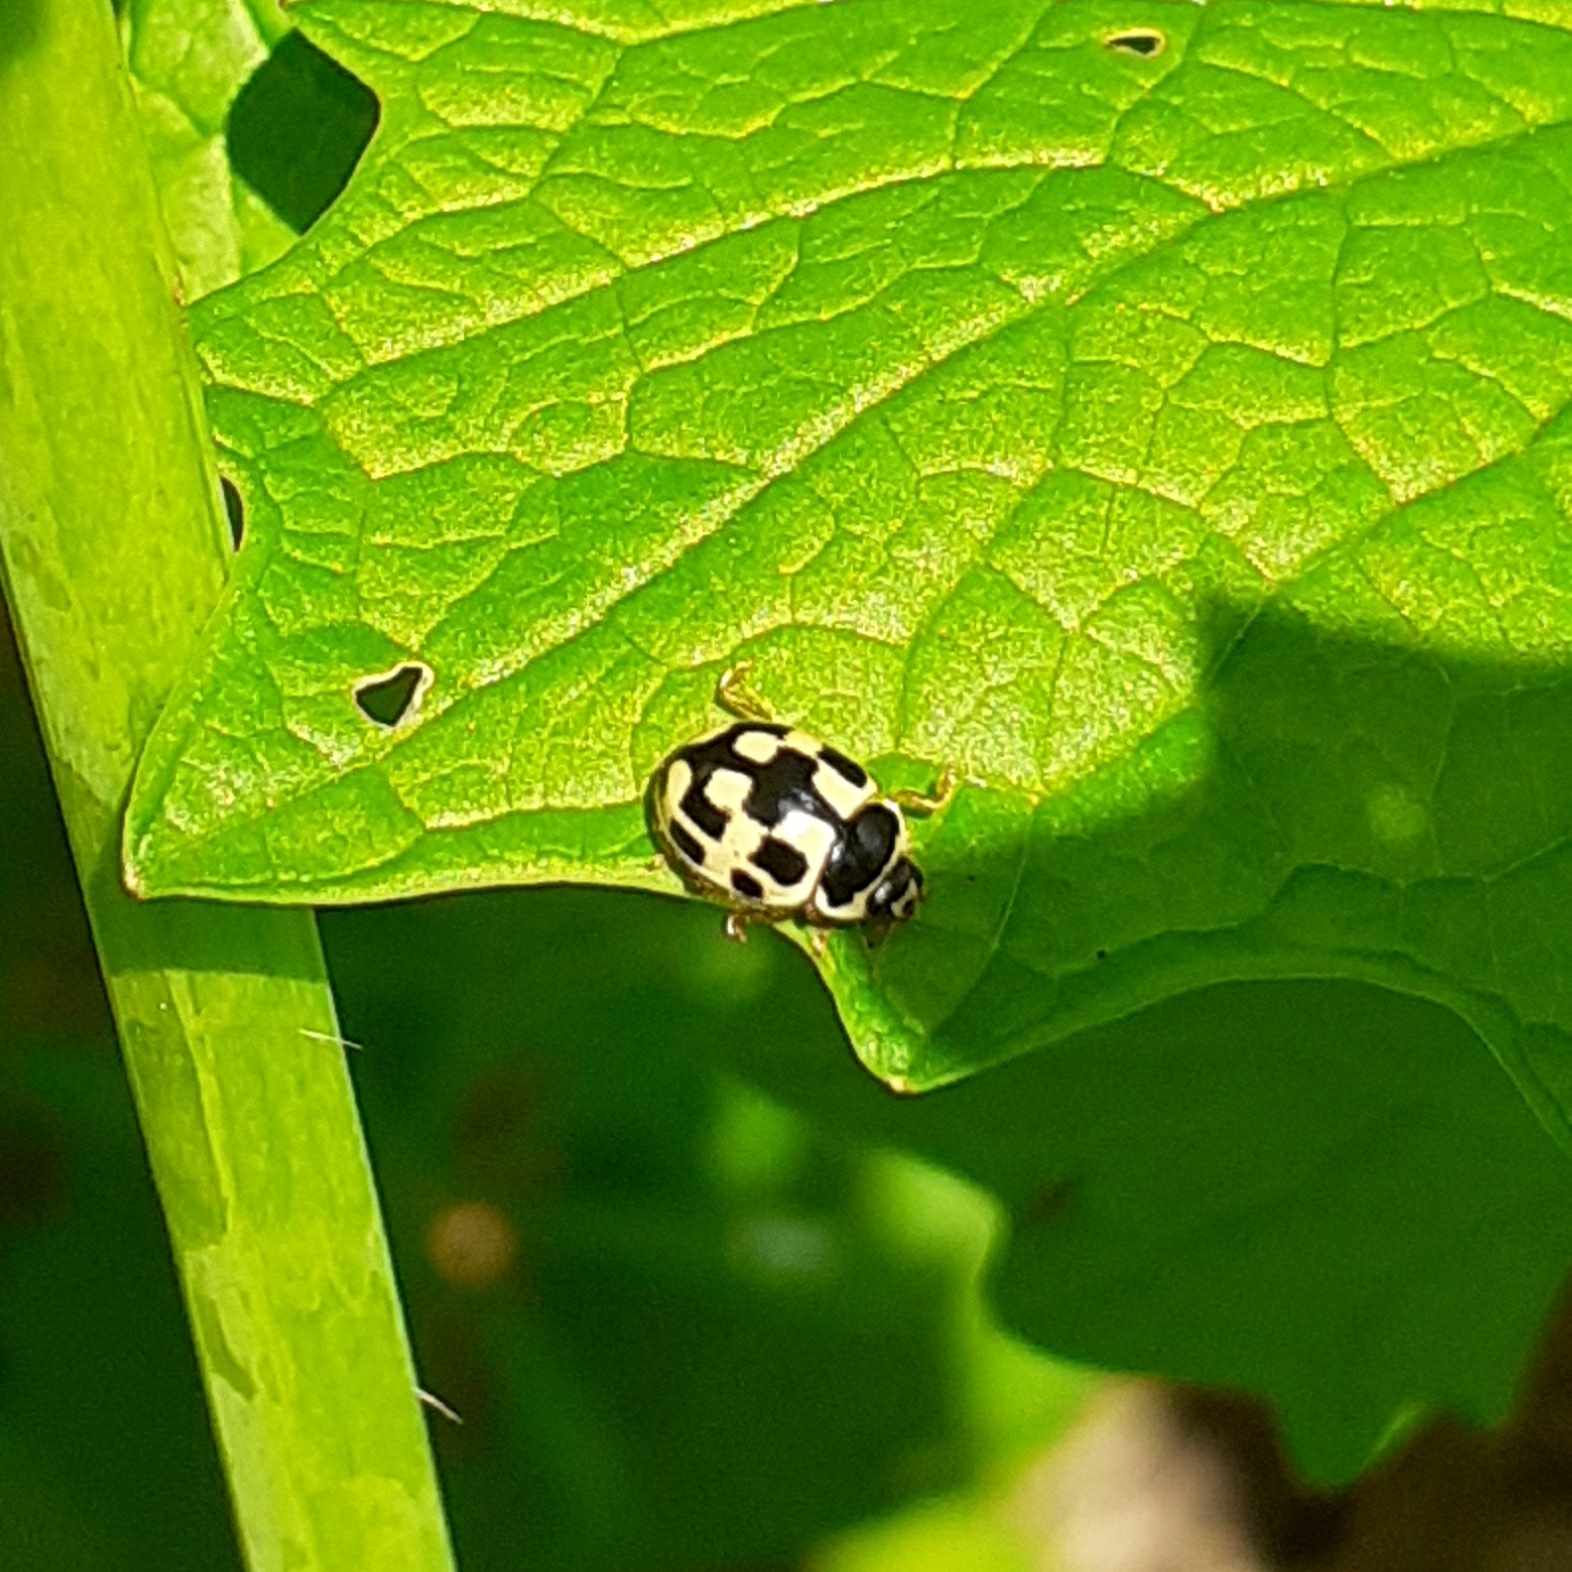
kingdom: Animalia
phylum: Arthropoda
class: Insecta
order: Coleoptera
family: Coccinellidae
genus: Propylaea
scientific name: Propylaea quatuordecimpunctata
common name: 14-spotted ladybird beetle
